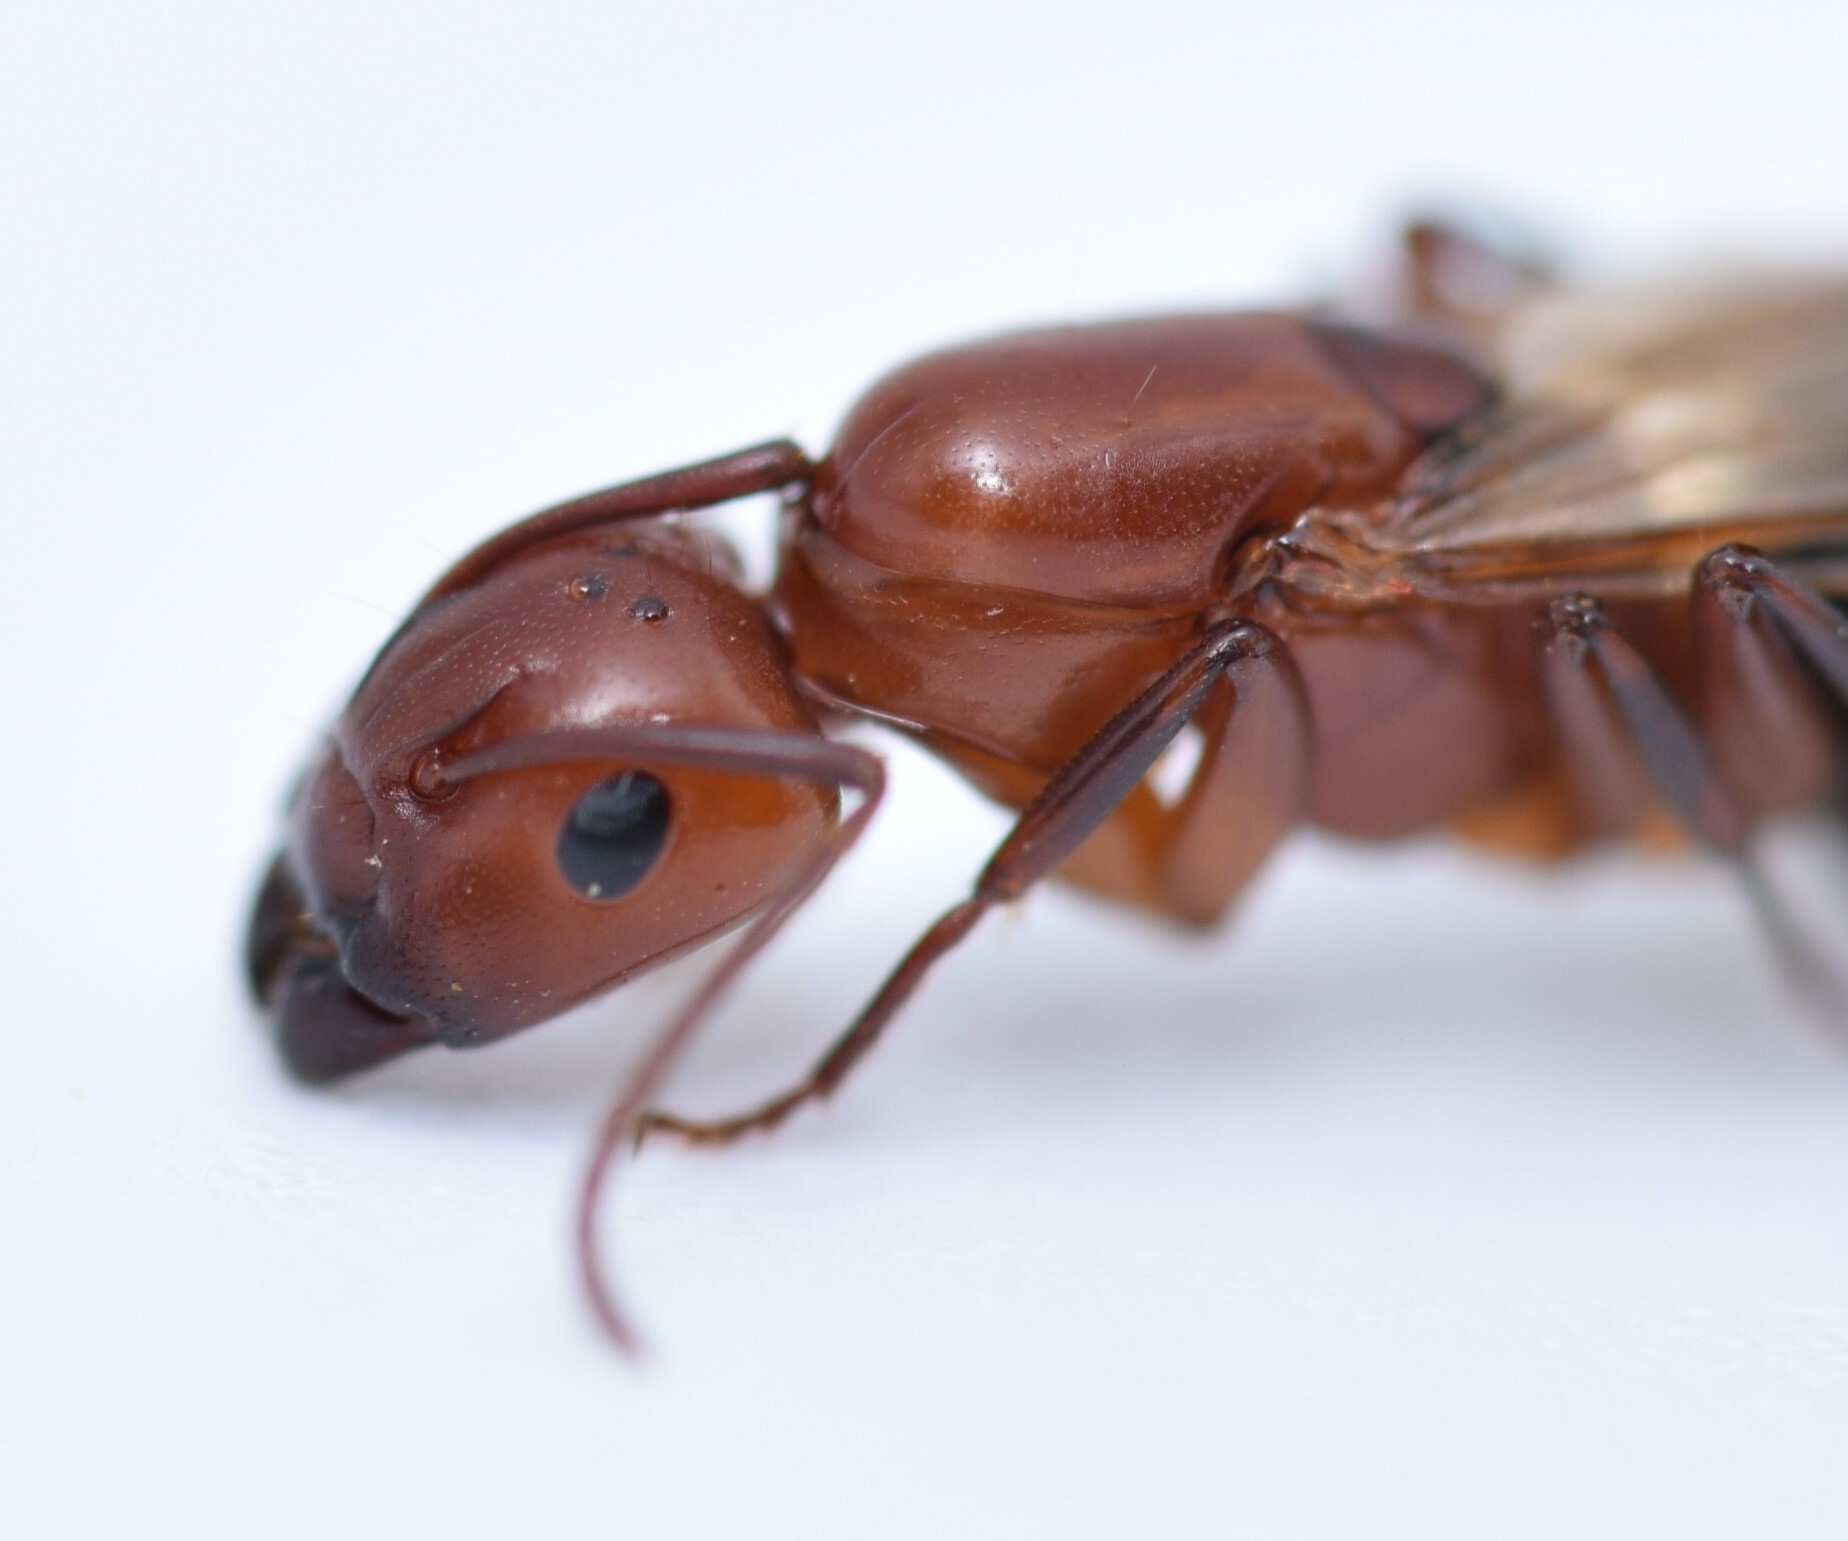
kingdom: Animalia
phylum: Arthropoda
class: Insecta
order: Hymenoptera
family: Formicidae
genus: Camponotus
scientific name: Camponotus decipiens
